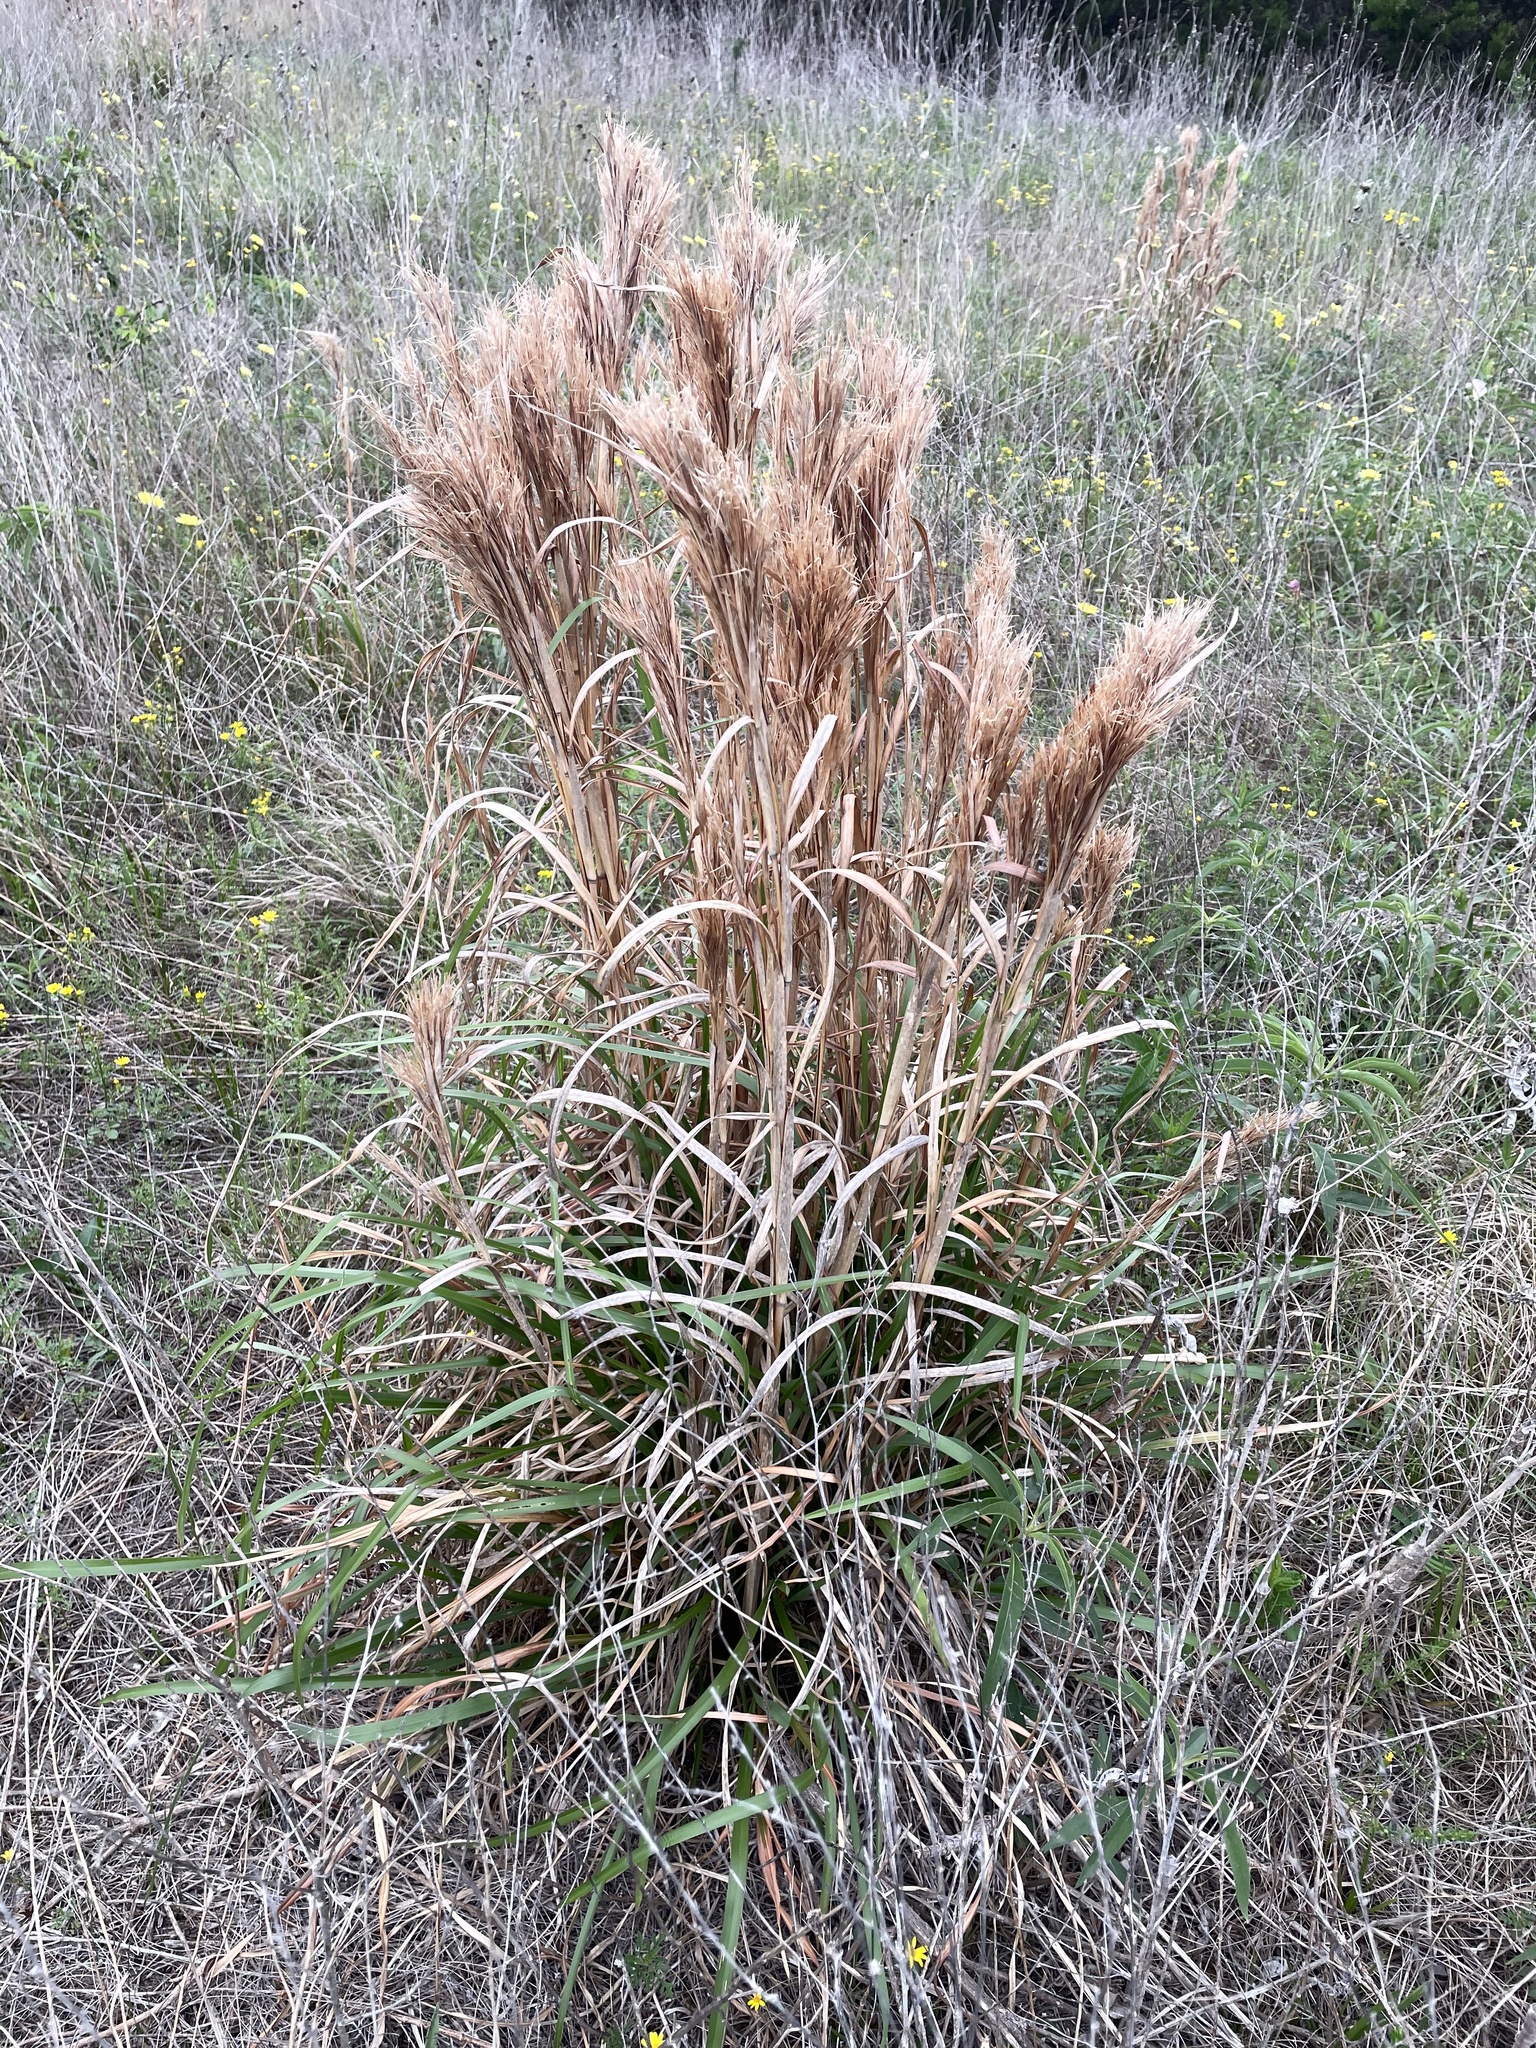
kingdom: Plantae
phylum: Tracheophyta
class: Liliopsida
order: Poales
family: Poaceae
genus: Andropogon
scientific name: Andropogon tenuispatheus
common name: Bushy bluestem
